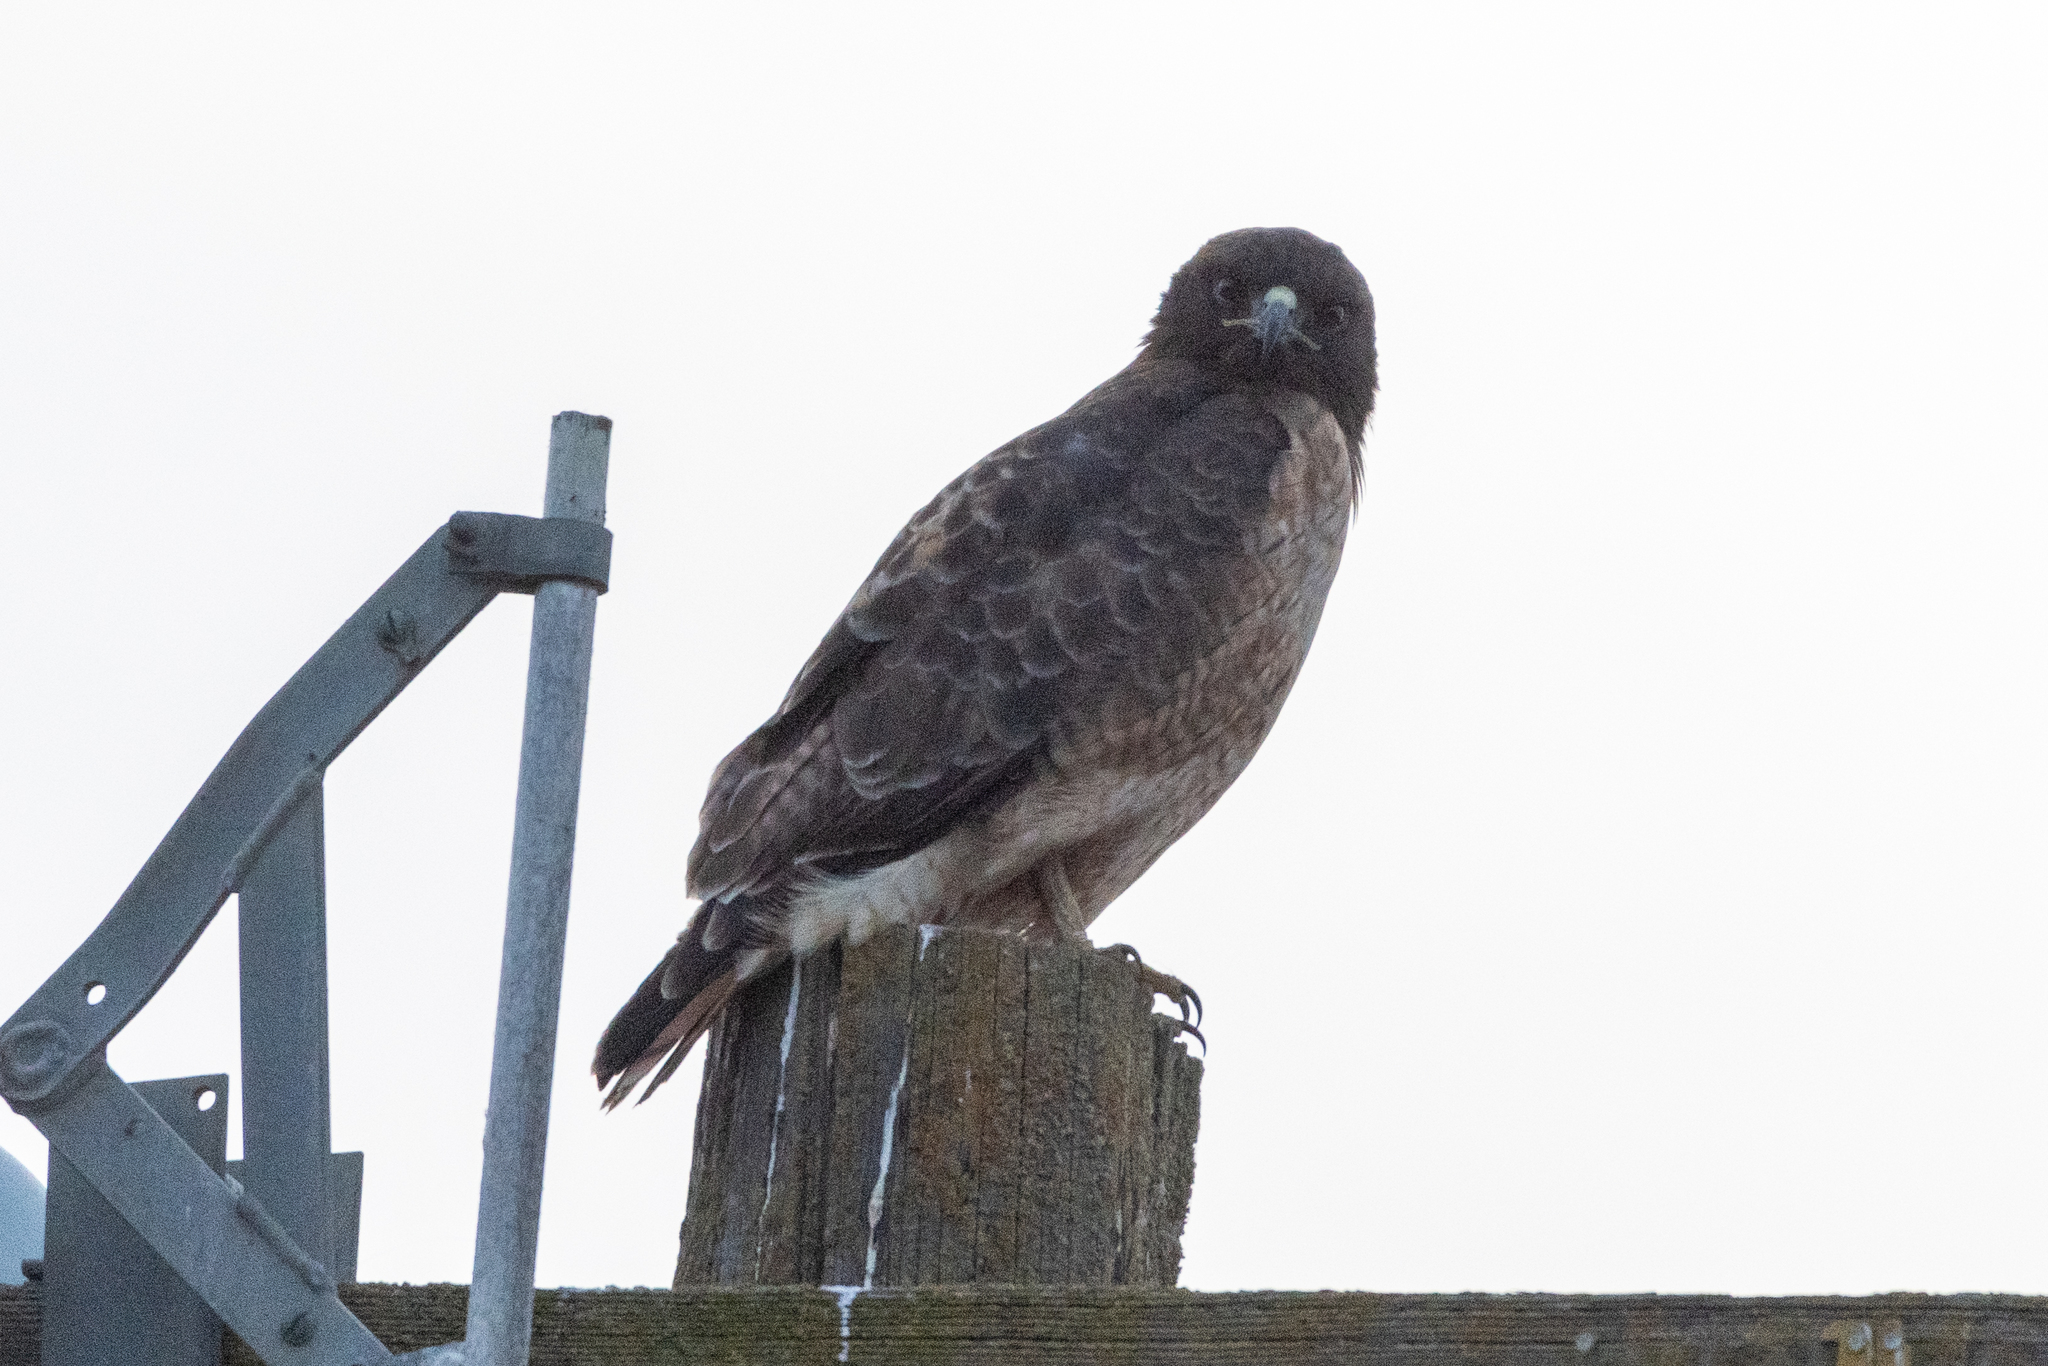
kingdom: Animalia
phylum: Chordata
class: Aves
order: Accipitriformes
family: Accipitridae
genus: Buteo
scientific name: Buteo jamaicensis
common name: Red-tailed hawk
